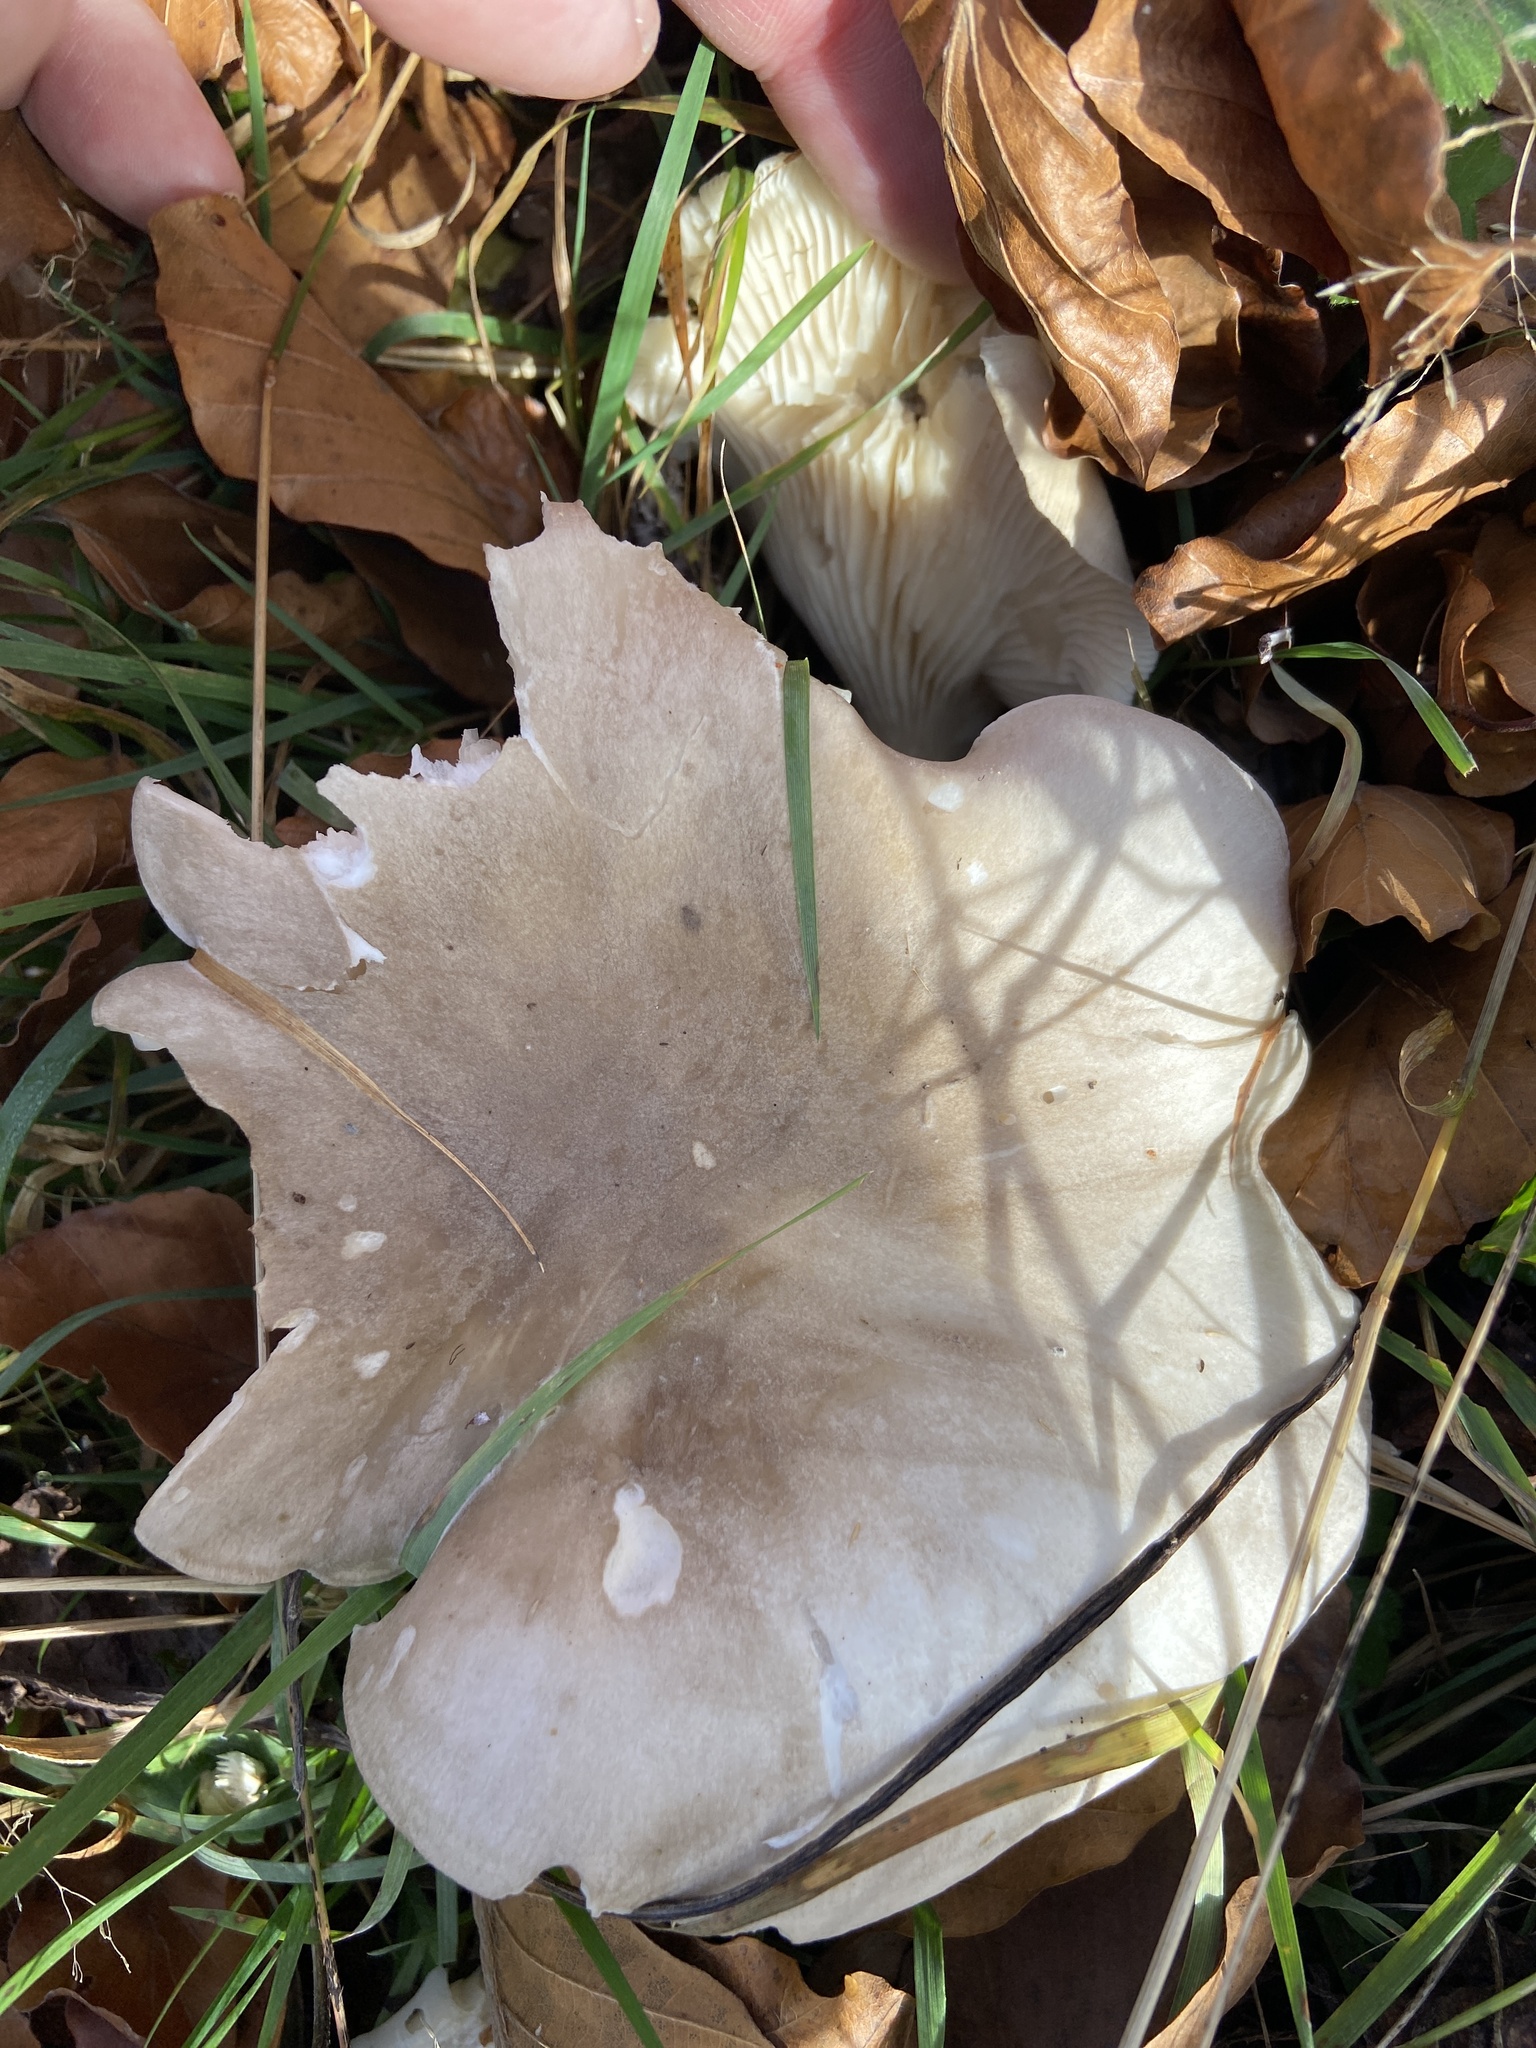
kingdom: Fungi
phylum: Basidiomycota
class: Agaricomycetes
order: Agaricales
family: Tricholomataceae
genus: Clitocybe
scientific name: Clitocybe nebularis
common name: Clouded agaric
